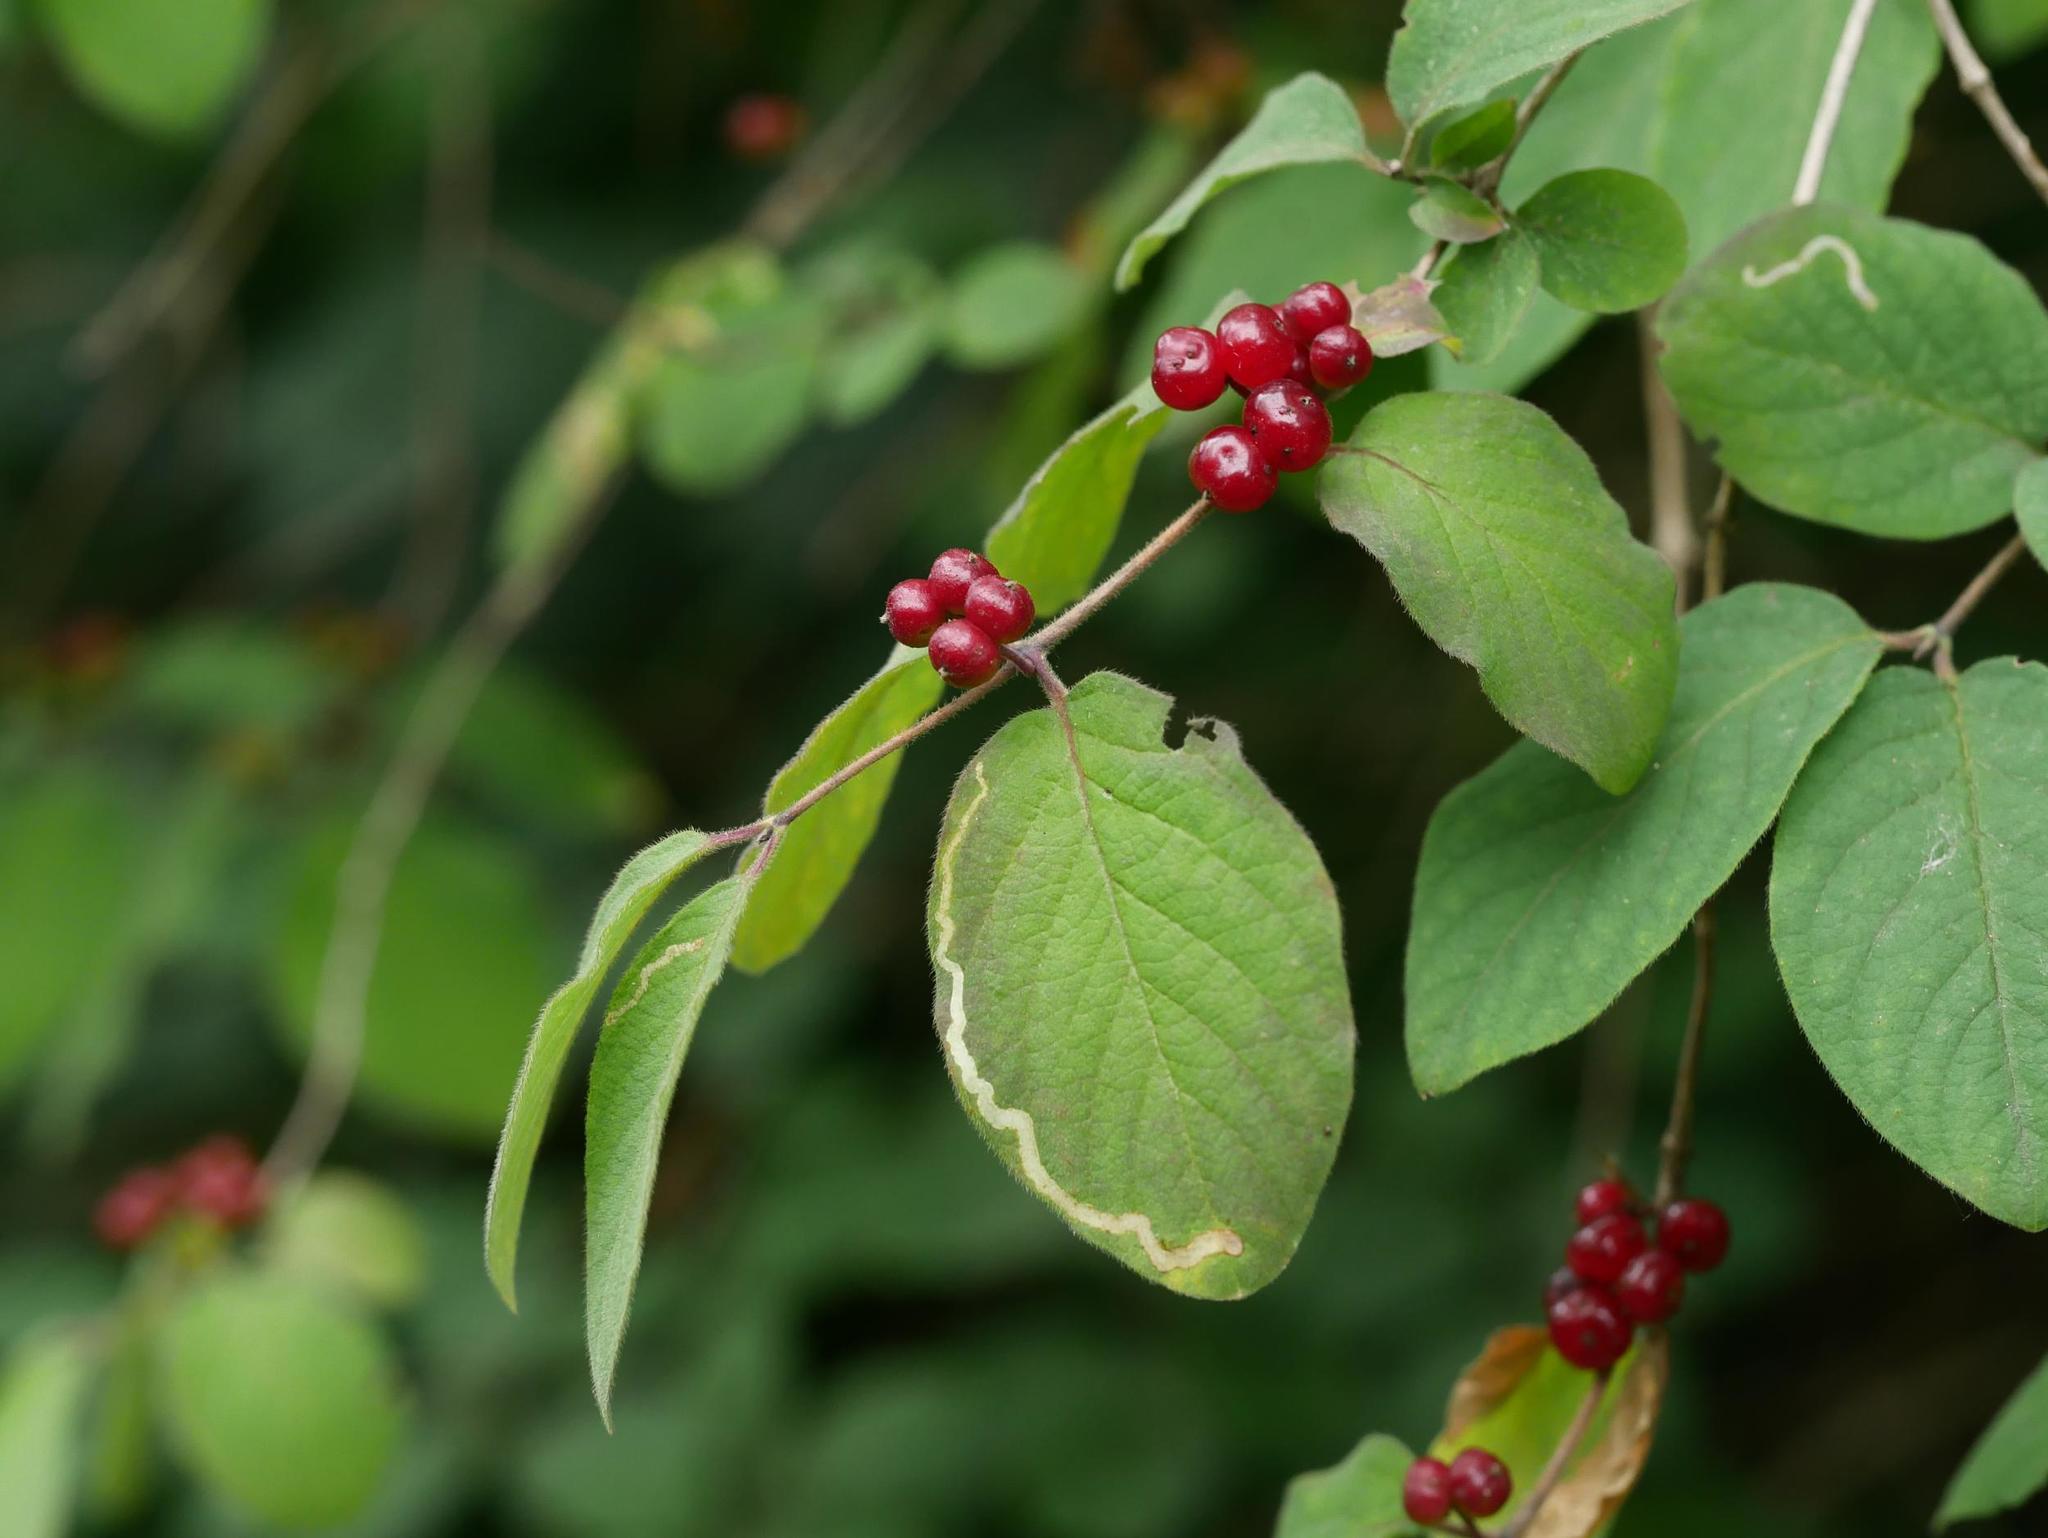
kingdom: Plantae
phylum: Tracheophyta
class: Magnoliopsida
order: Dipsacales
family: Caprifoliaceae
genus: Lonicera
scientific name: Lonicera xylosteum
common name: Fly honeysuckle
